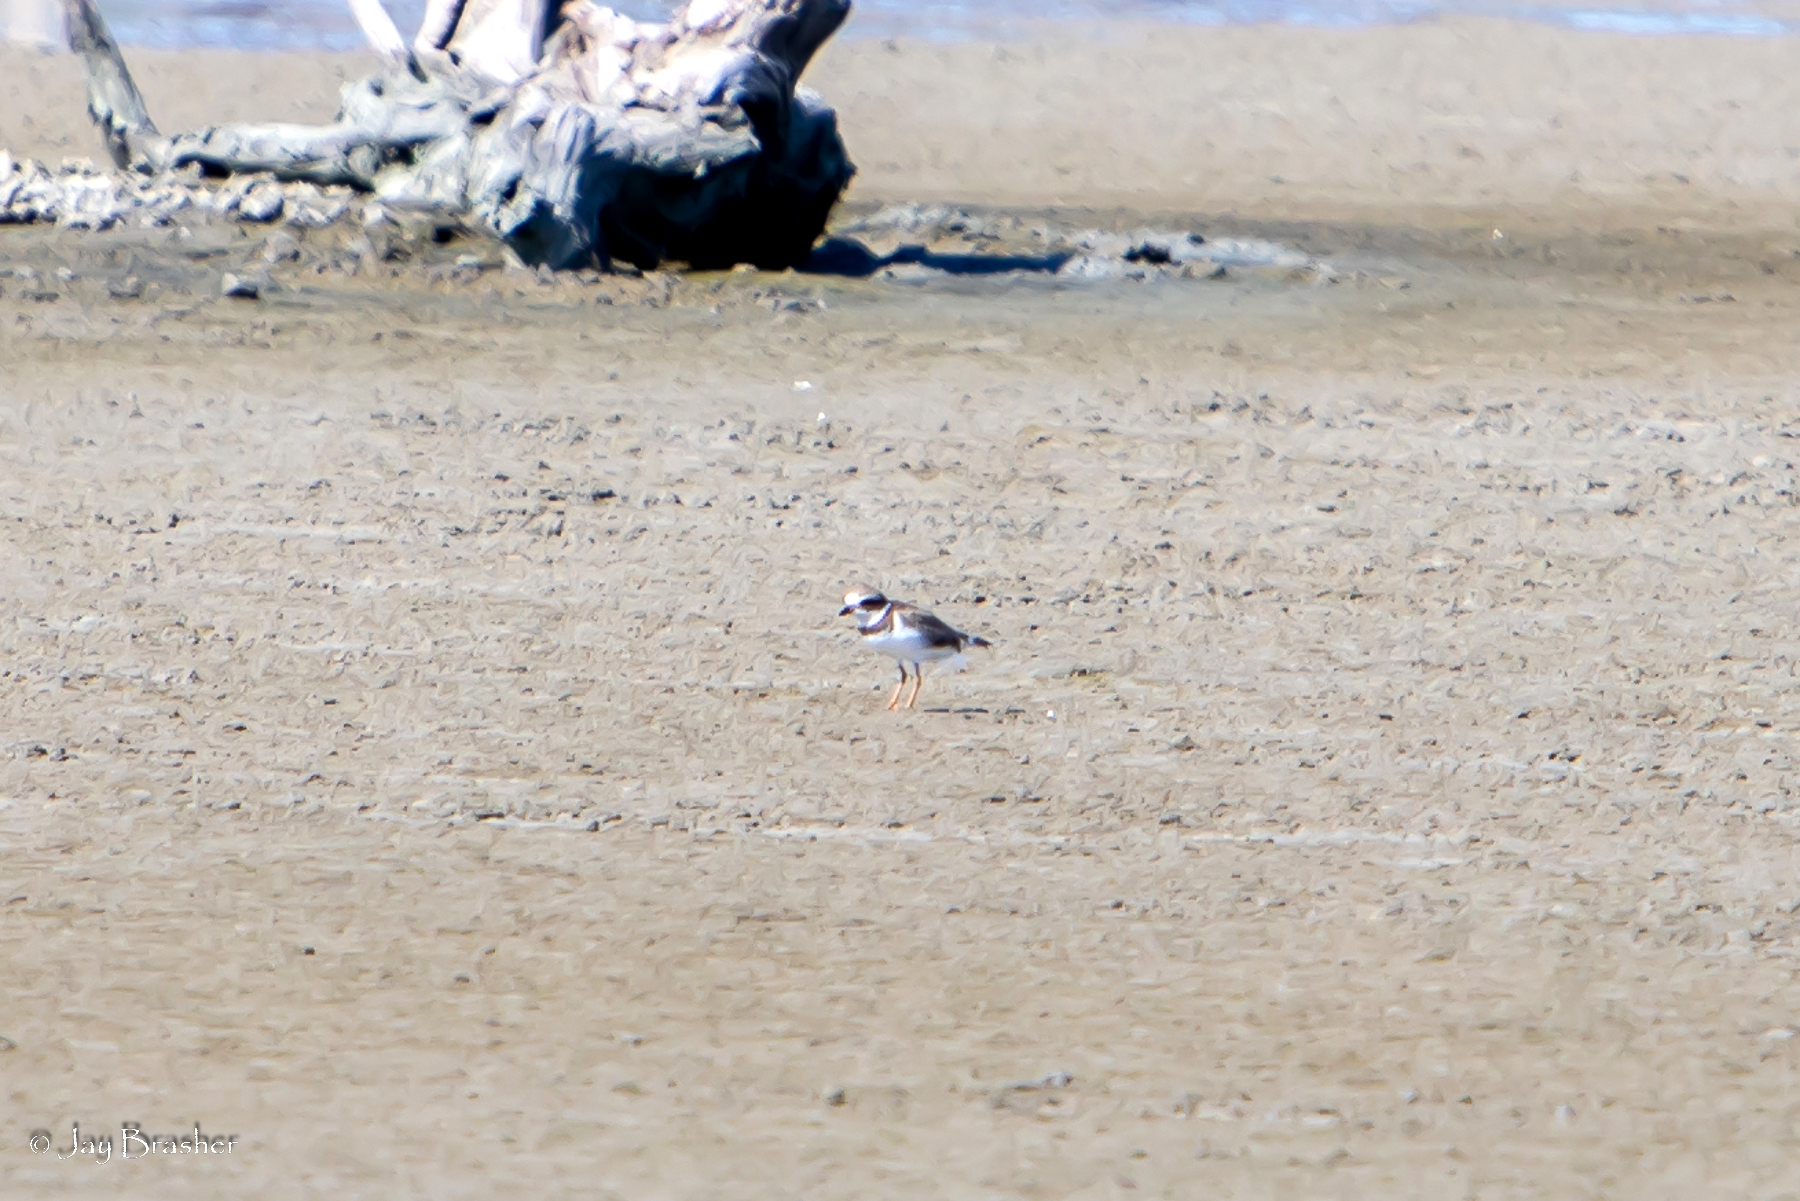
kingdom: Animalia
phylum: Chordata
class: Aves
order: Charadriiformes
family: Charadriidae
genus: Charadrius
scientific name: Charadrius semipalmatus
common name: Semipalmated plover
